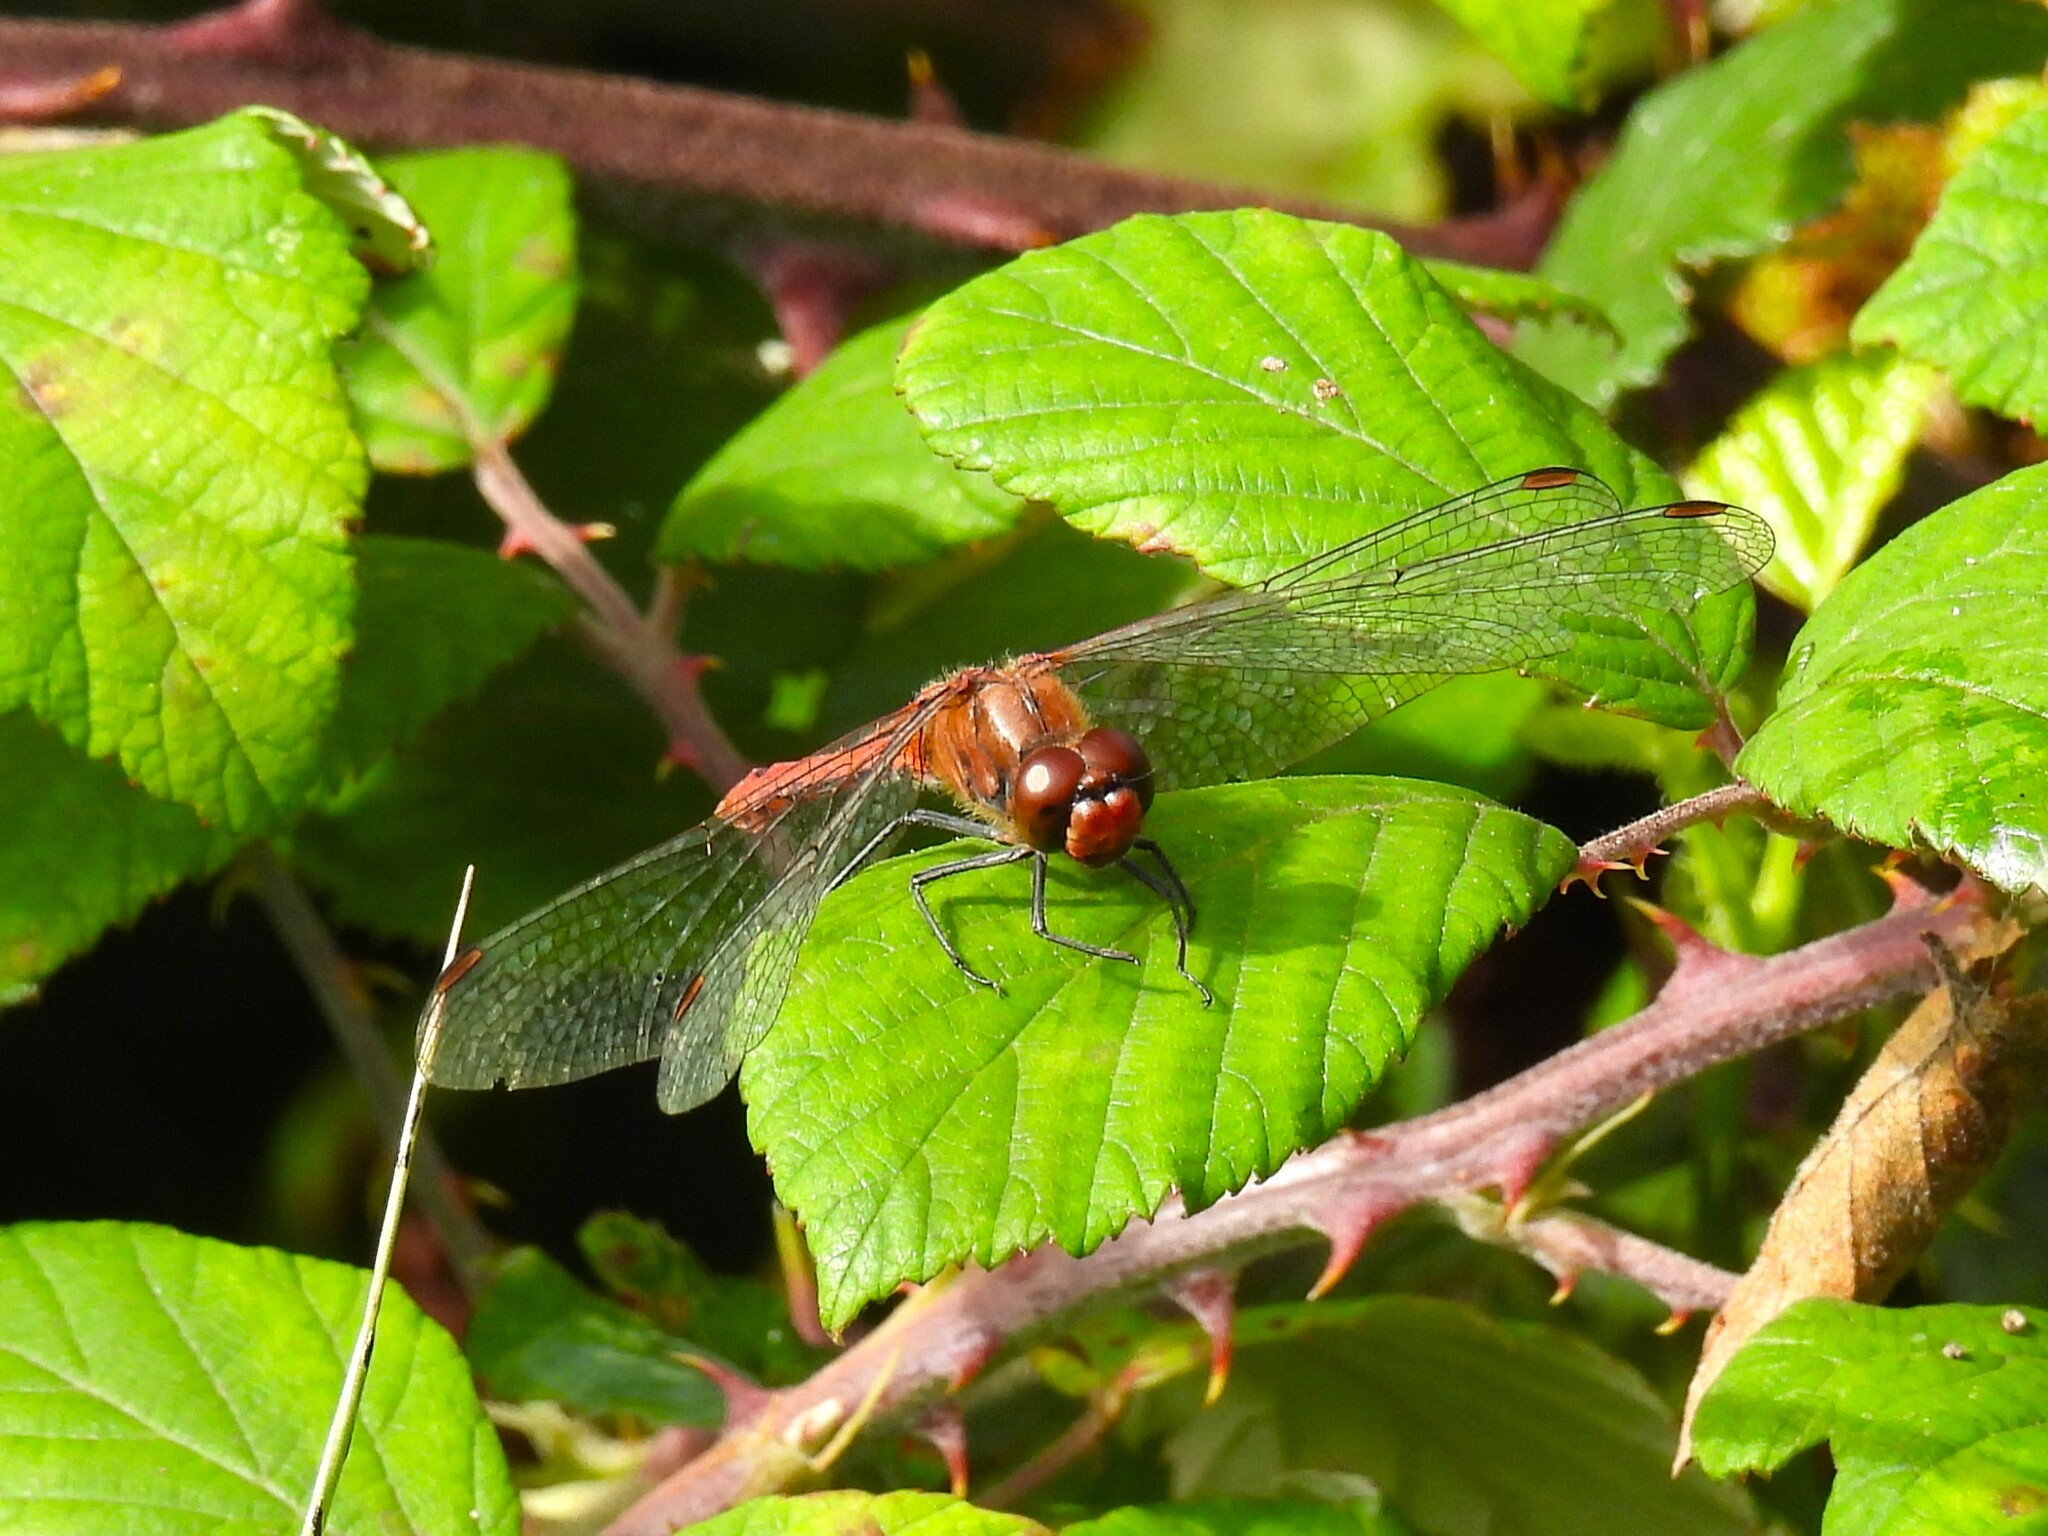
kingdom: Animalia
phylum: Arthropoda
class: Insecta
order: Odonata
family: Libellulidae
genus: Sympetrum
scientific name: Sympetrum sanguineum
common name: Ruddy darter
